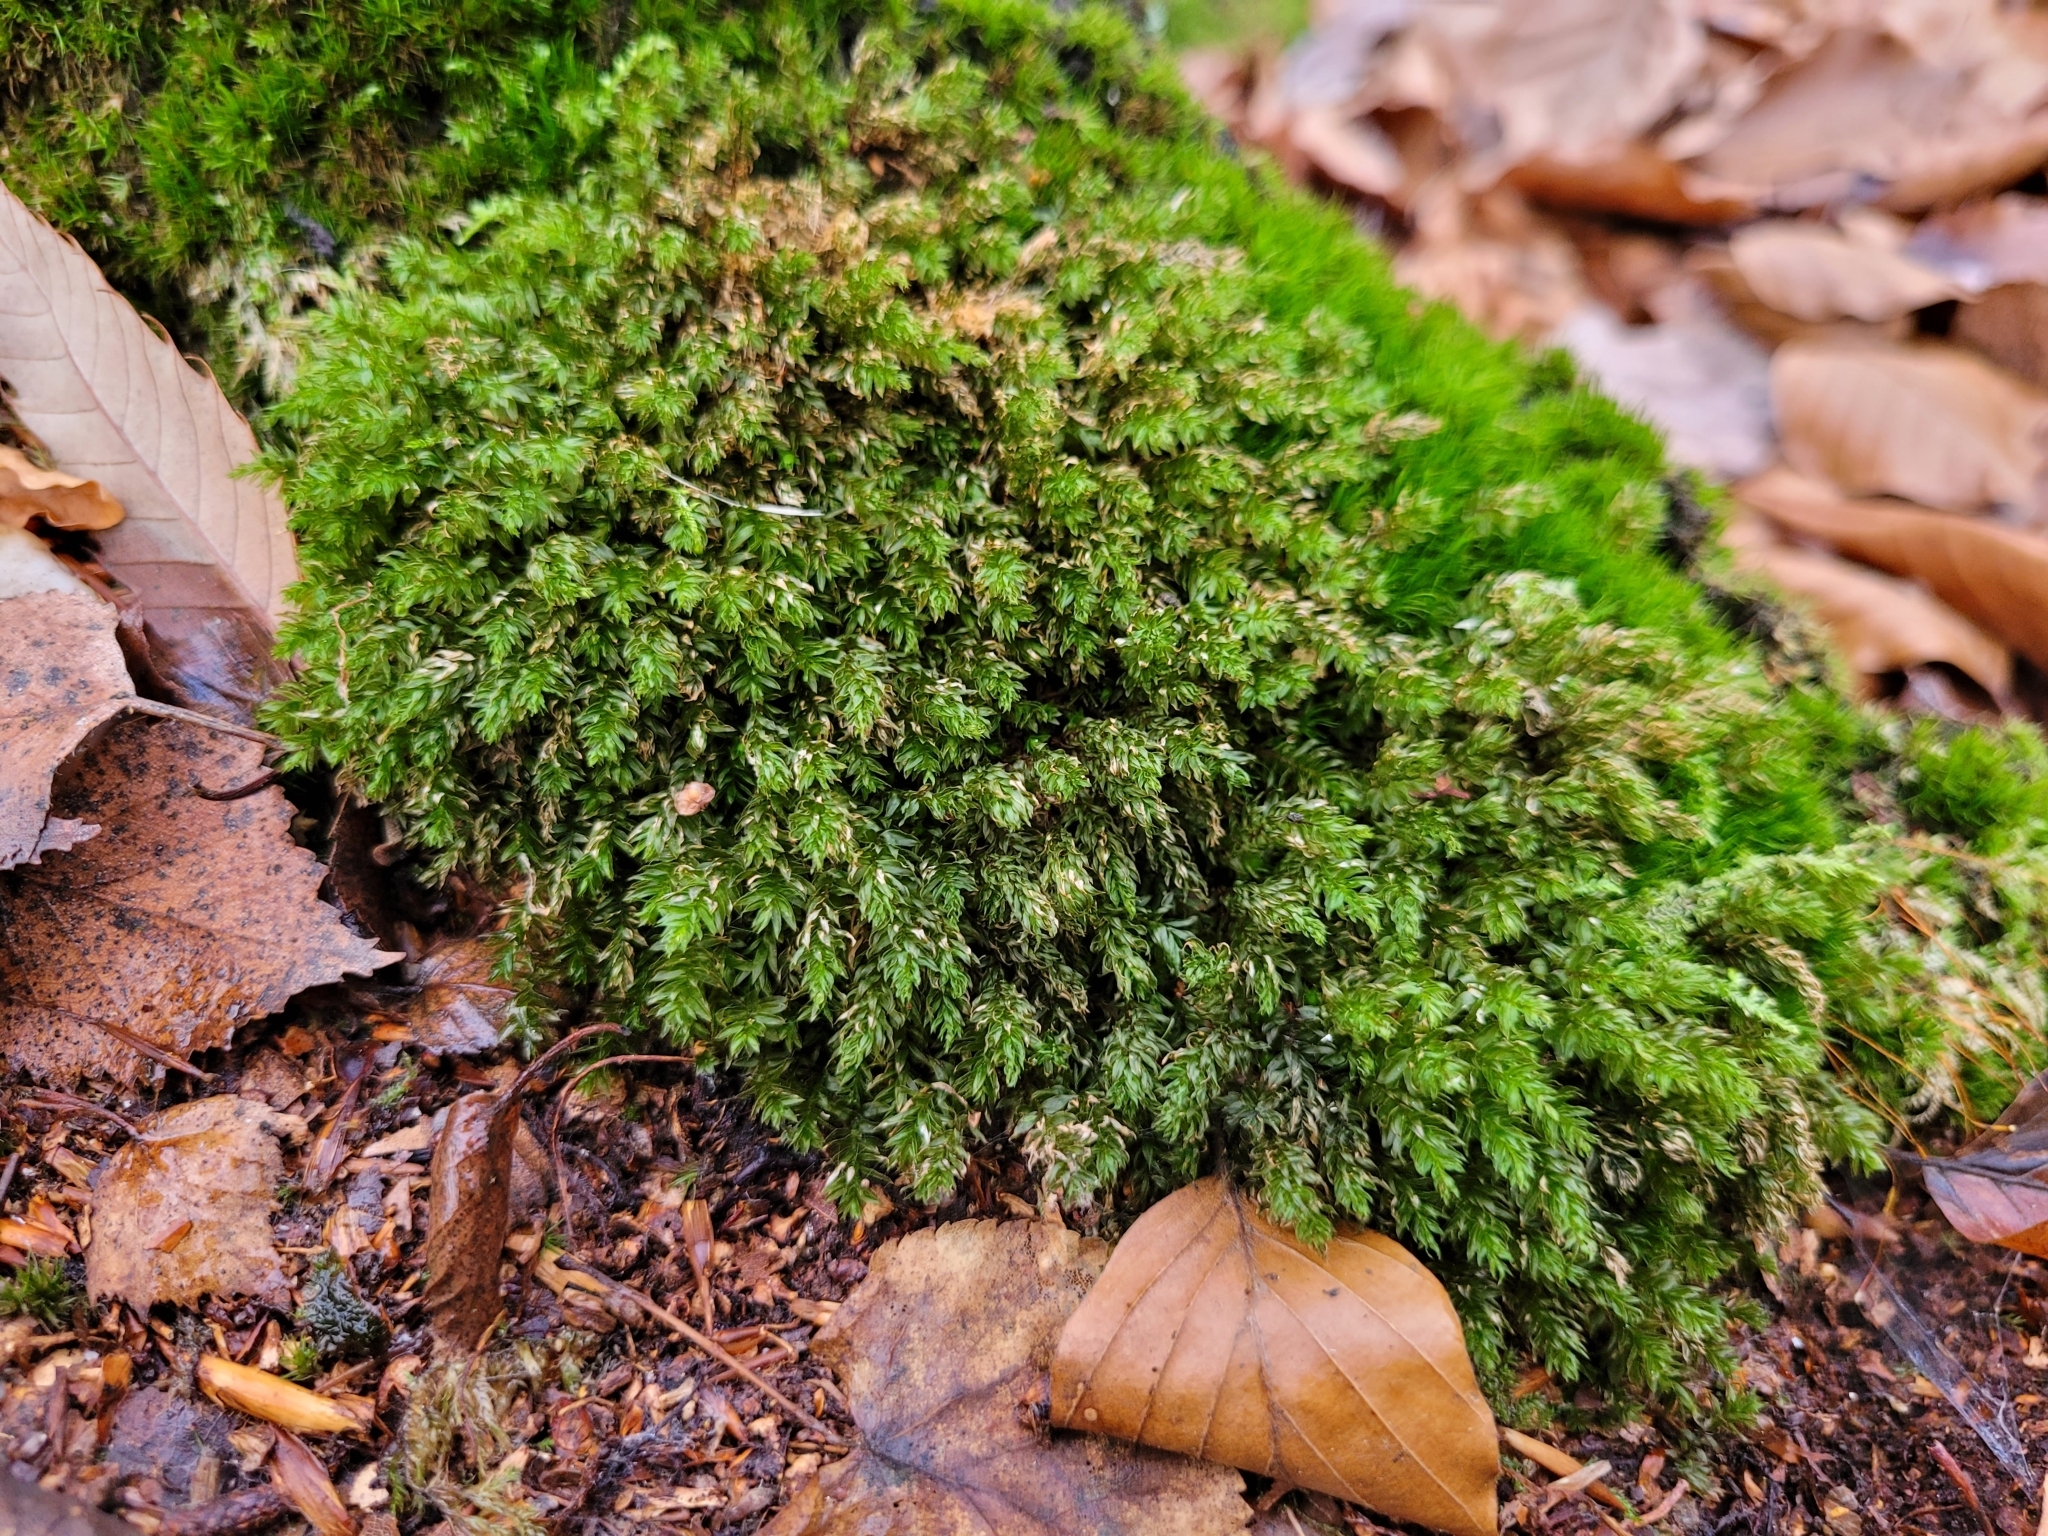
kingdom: Plantae
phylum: Bryophyta
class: Bryopsida
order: Bryales
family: Mniaceae
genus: Mnium
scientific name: Mnium hornum
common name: Swan's-neck leafy moss
